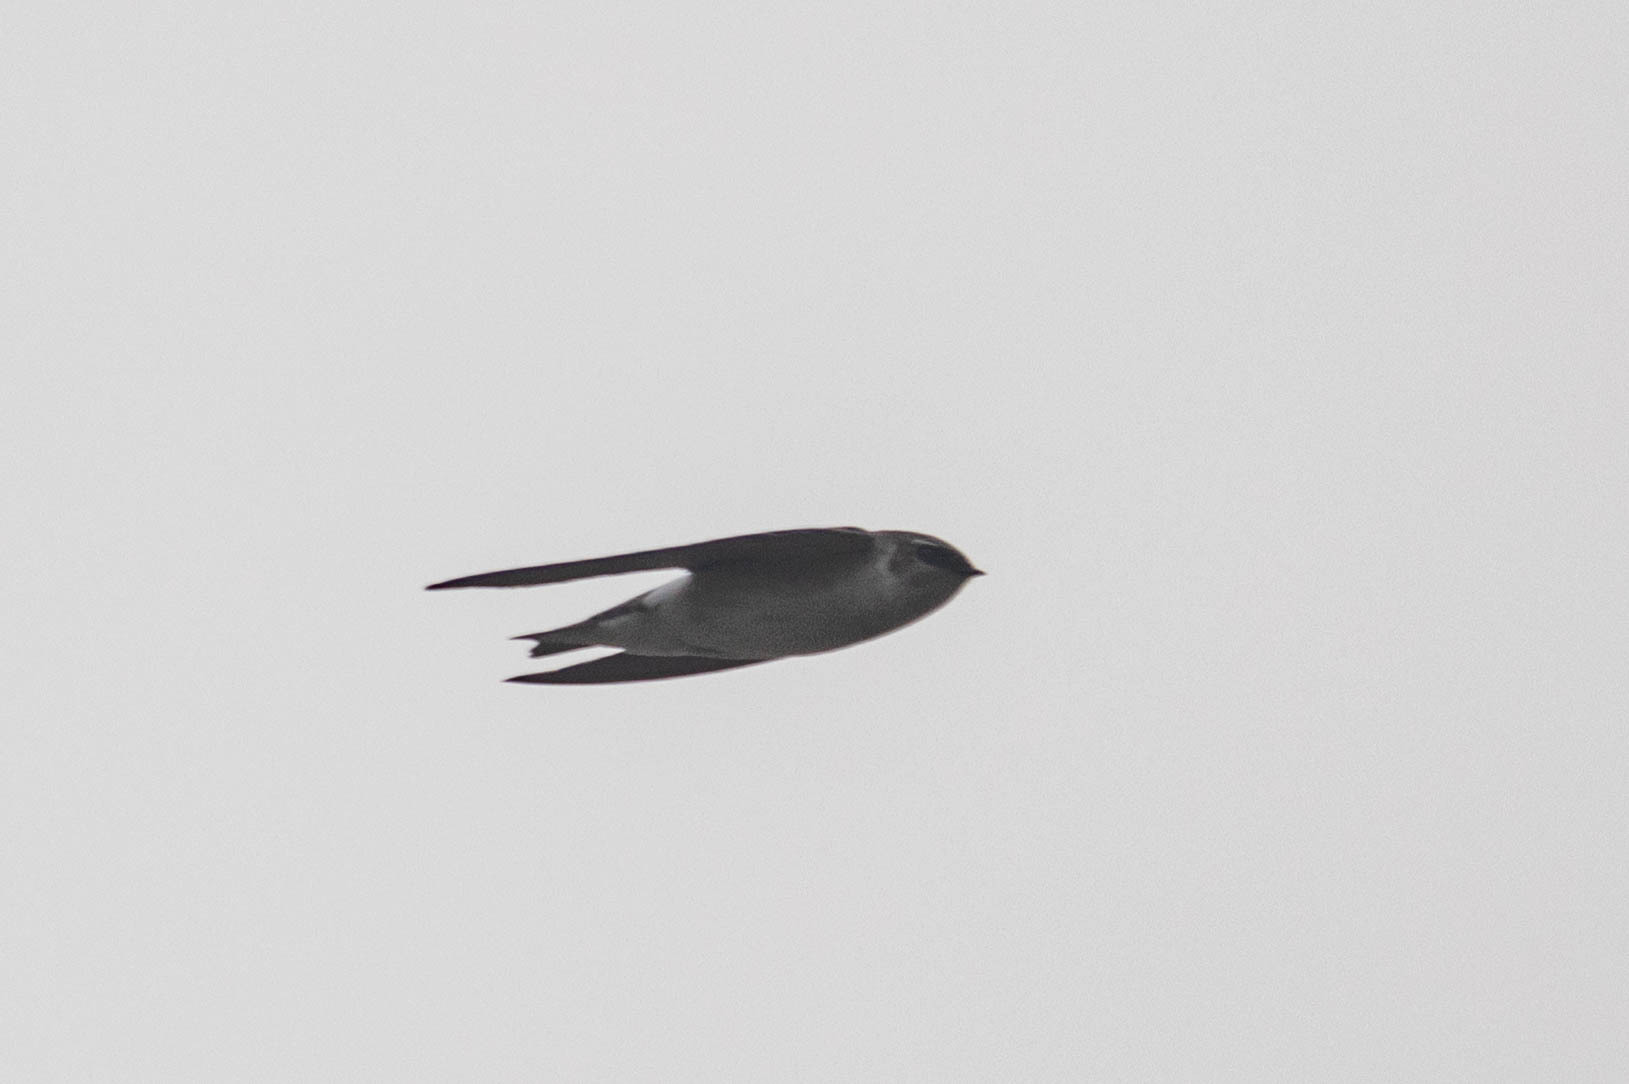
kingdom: Animalia
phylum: Chordata
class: Aves
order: Passeriformes
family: Hirundinidae
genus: Tachycineta
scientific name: Tachycineta thalassina
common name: Violet-green swallow
